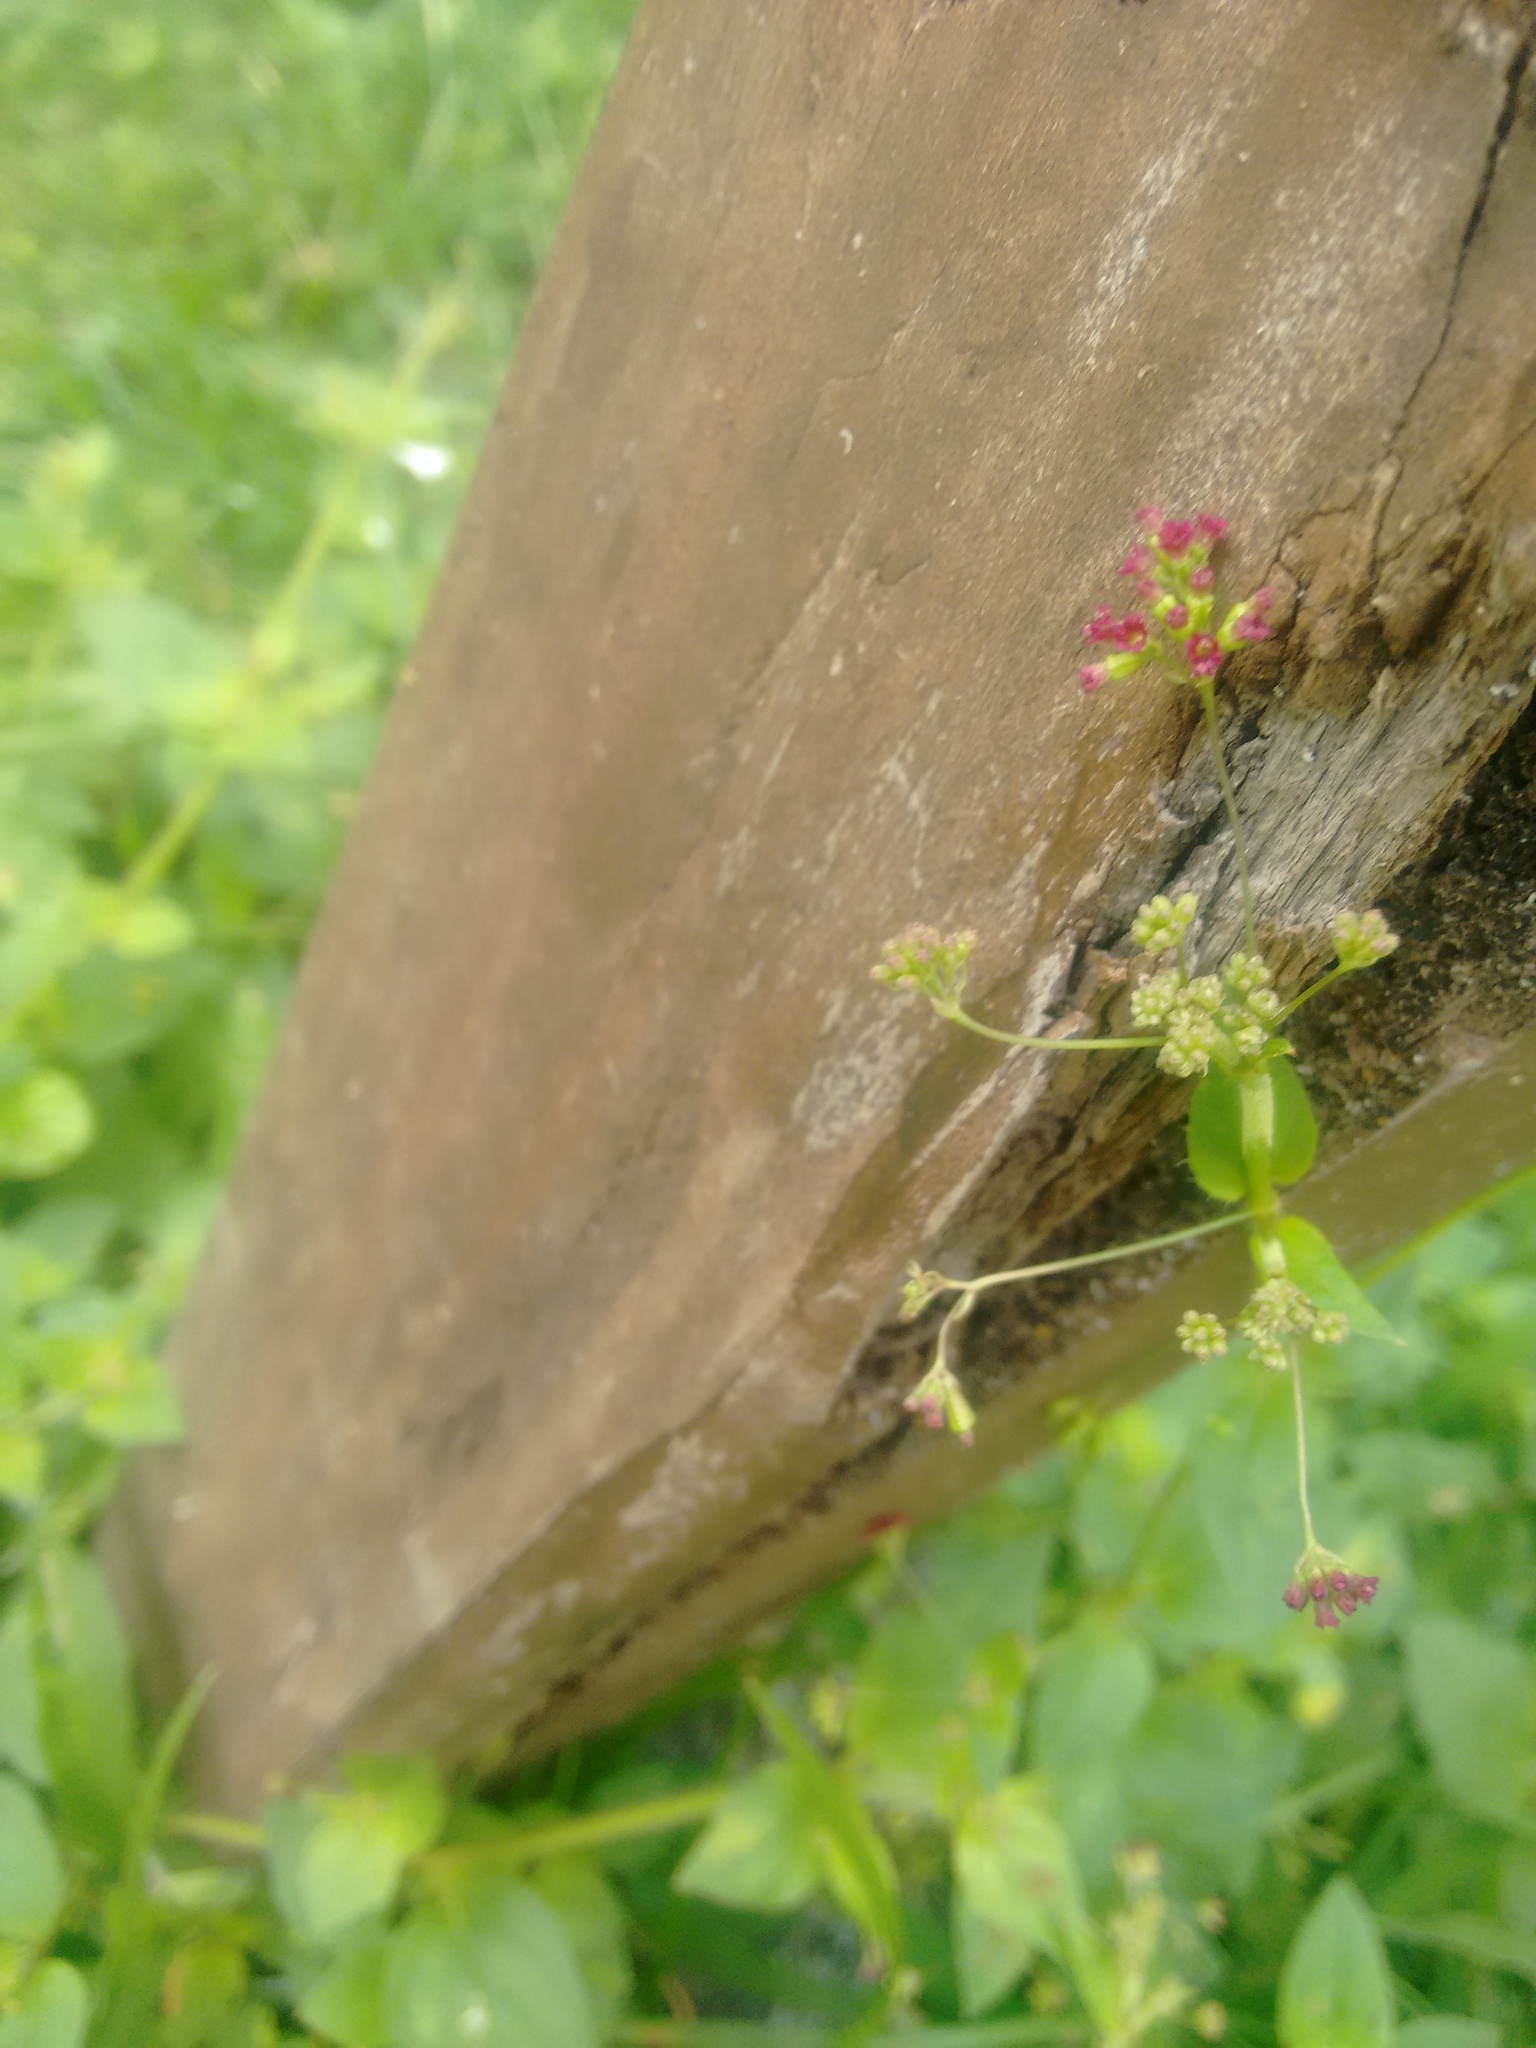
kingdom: Plantae
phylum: Tracheophyta
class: Magnoliopsida
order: Caryophyllales
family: Nyctaginaceae
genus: Boerhavia
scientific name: Boerhavia diffusa
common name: Red spiderling
